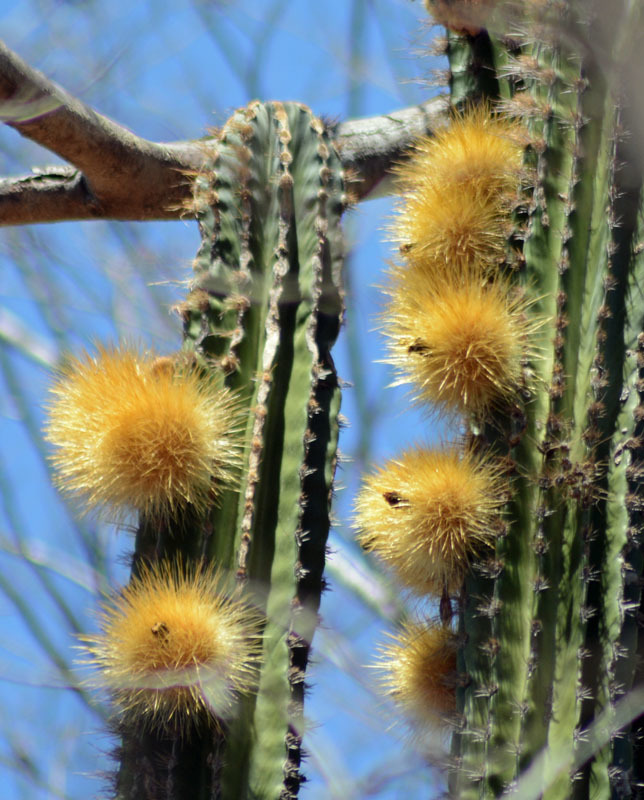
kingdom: Plantae
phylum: Tracheophyta
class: Magnoliopsida
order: Caryophyllales
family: Cactaceae
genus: Pachycereus
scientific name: Pachycereus pecten-aboriginum
